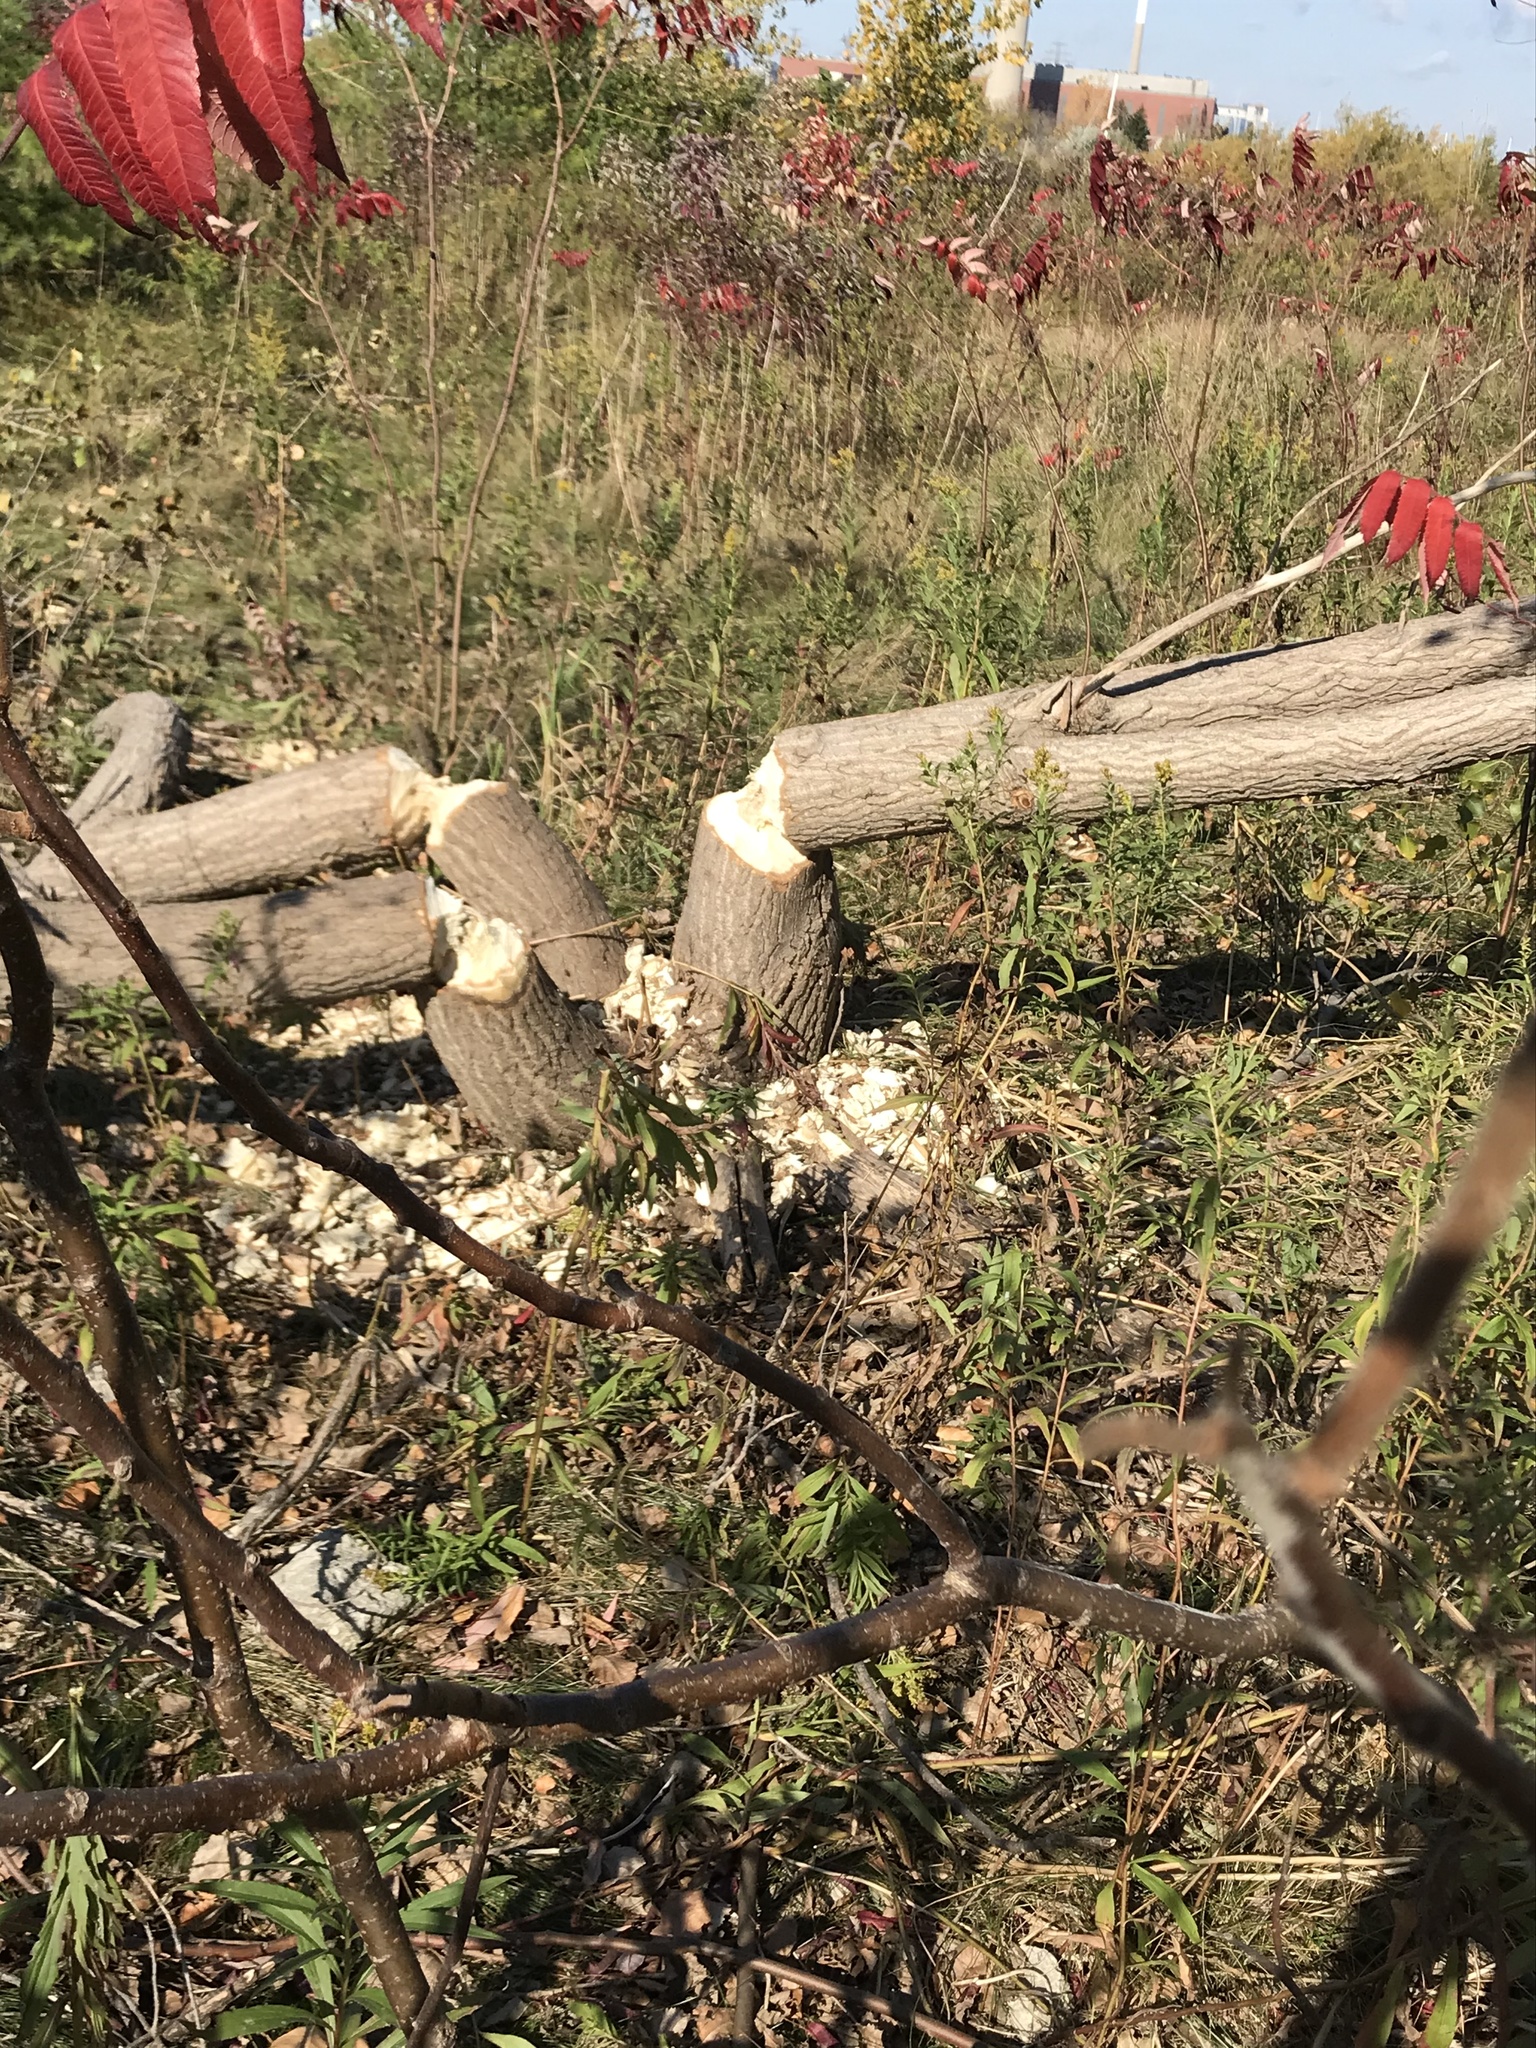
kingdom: Animalia
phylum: Chordata
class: Mammalia
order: Rodentia
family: Castoridae
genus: Castor
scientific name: Castor canadensis
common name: American beaver
